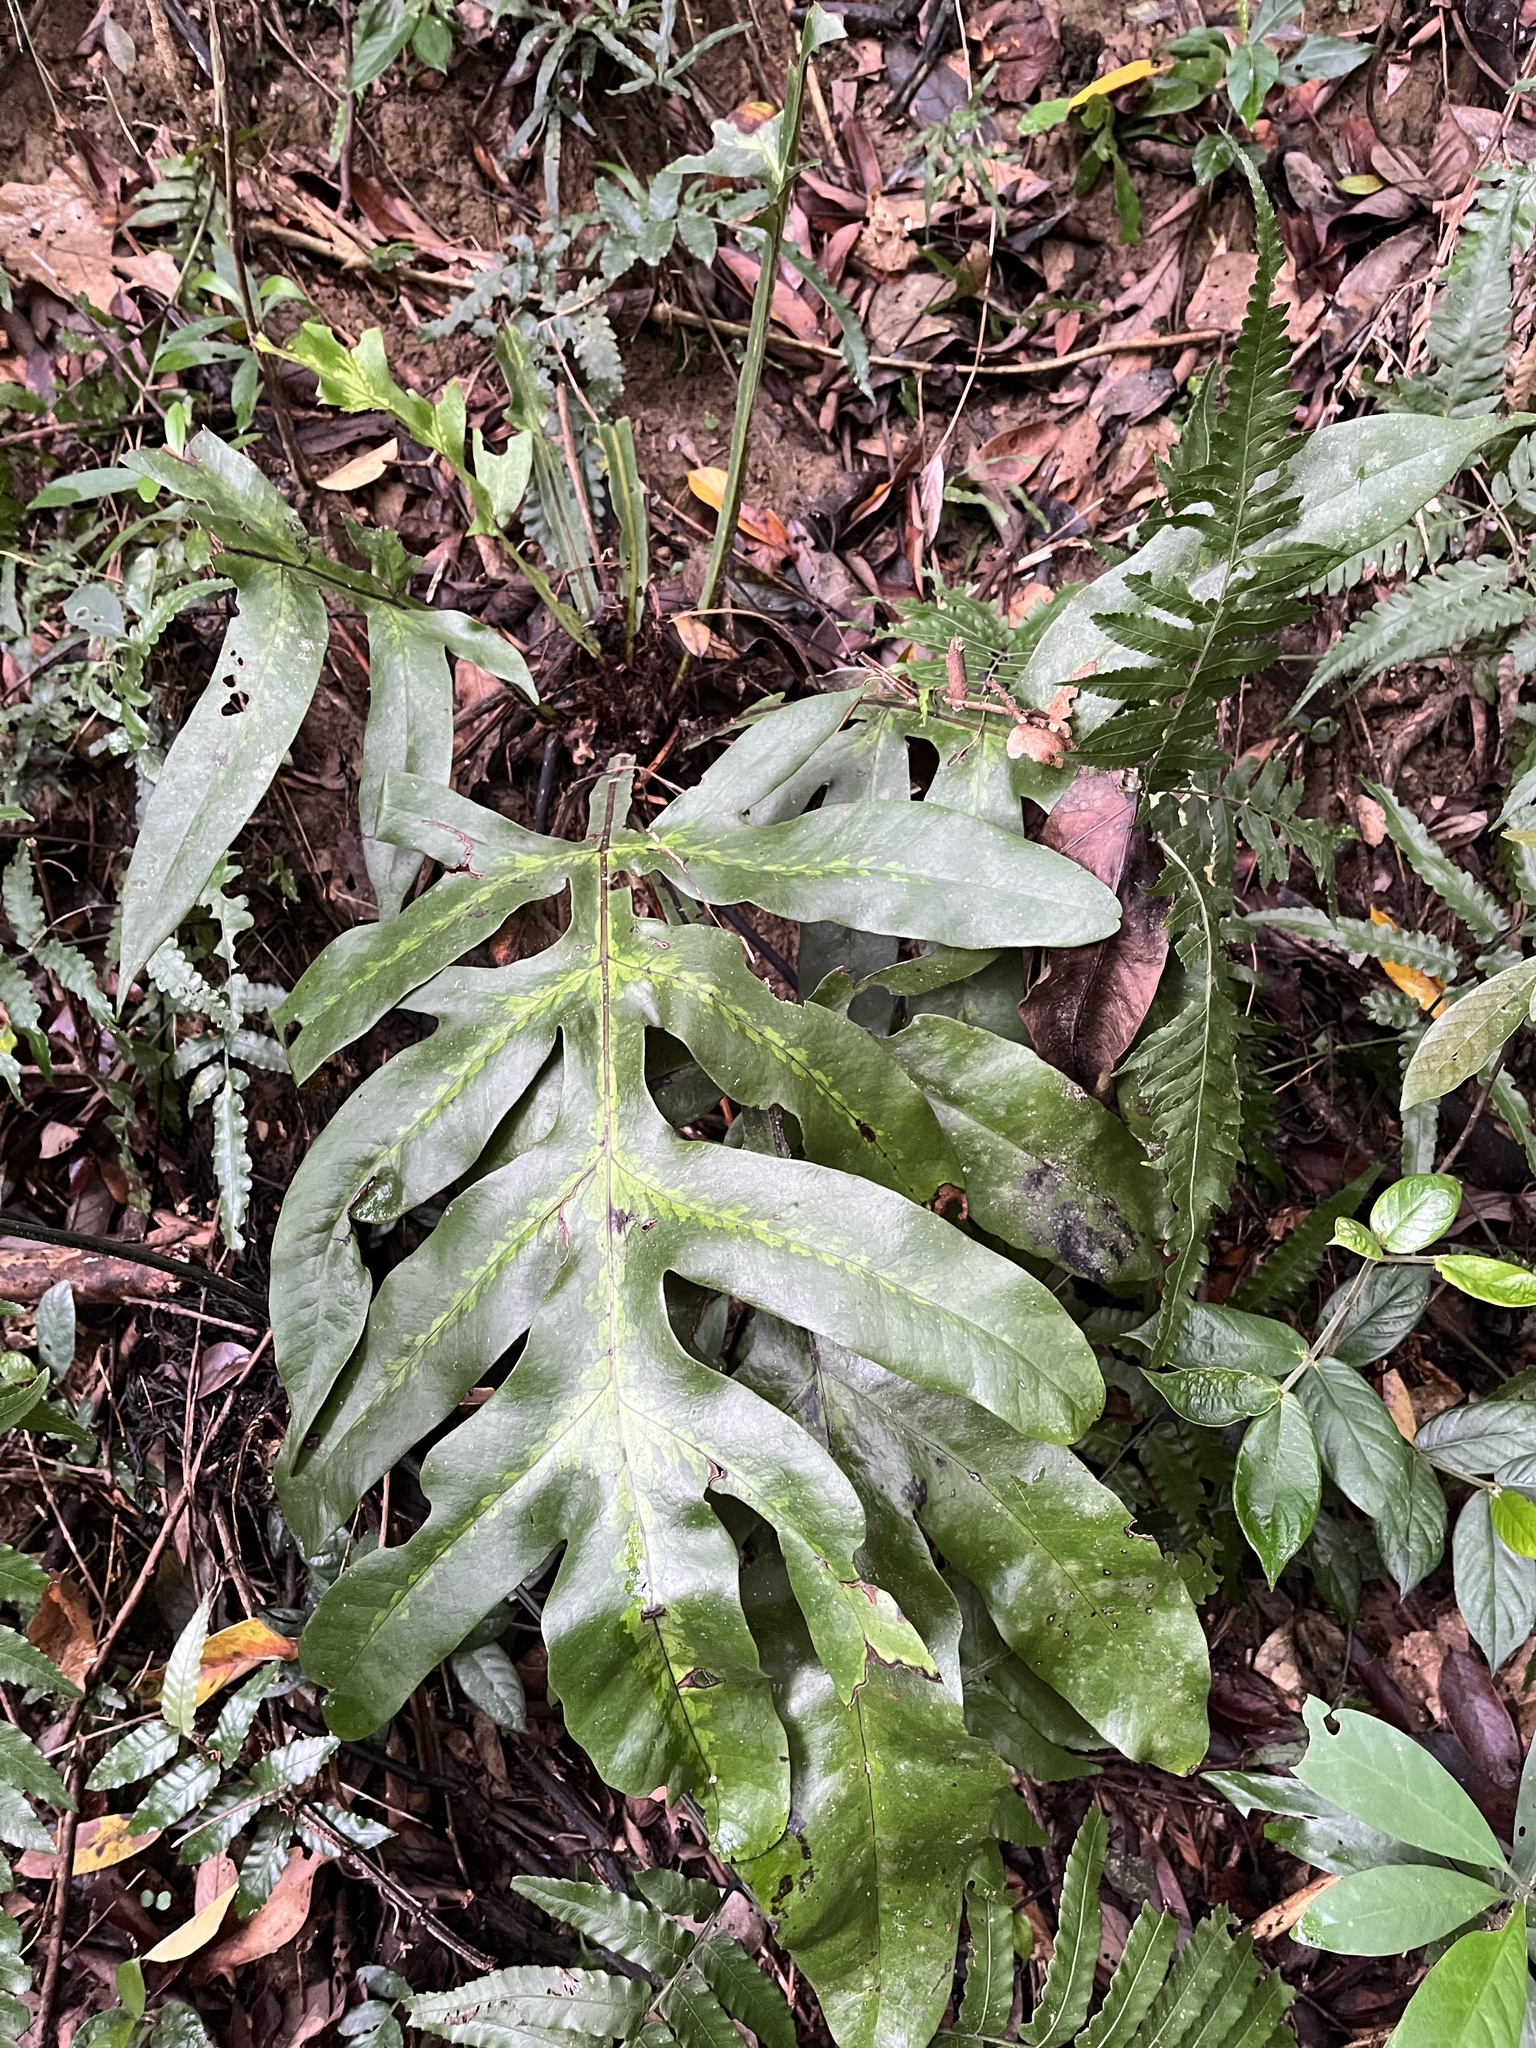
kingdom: Plantae
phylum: Tracheophyta
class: Polypodiopsida
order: Polypodiales
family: Tectariaceae
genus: Tectaria
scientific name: Tectaria decurrens
